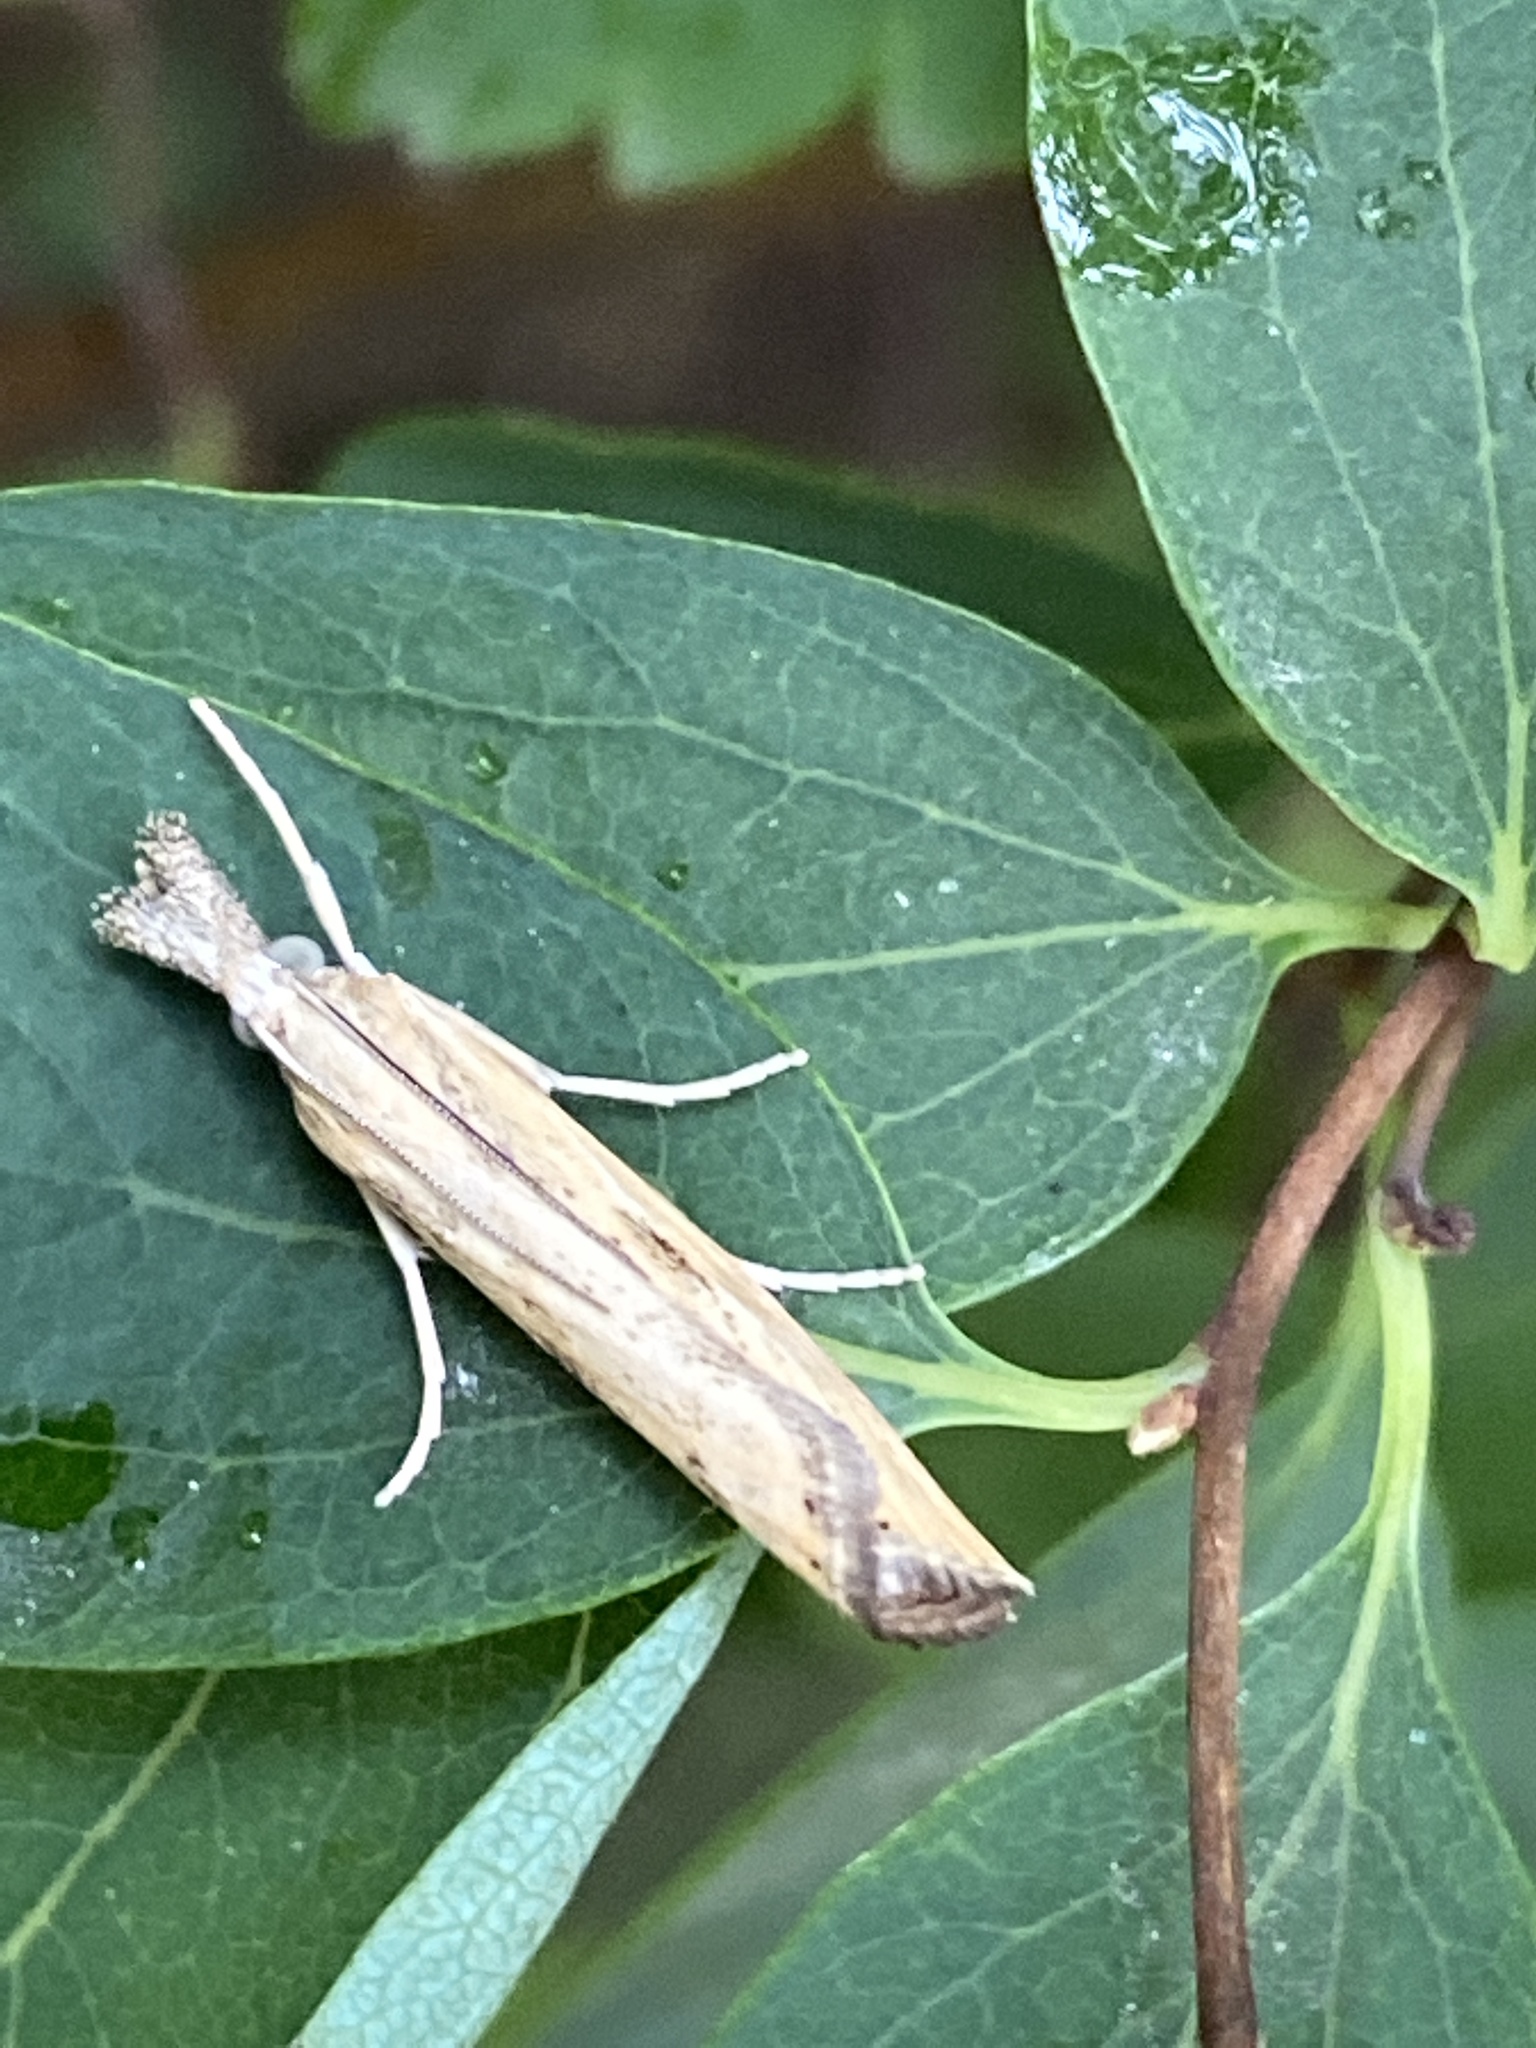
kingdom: Animalia
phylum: Arthropoda
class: Insecta
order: Lepidoptera
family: Crambidae
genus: Agriphila
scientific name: Agriphila inquinatella
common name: Barred grass-veneer
